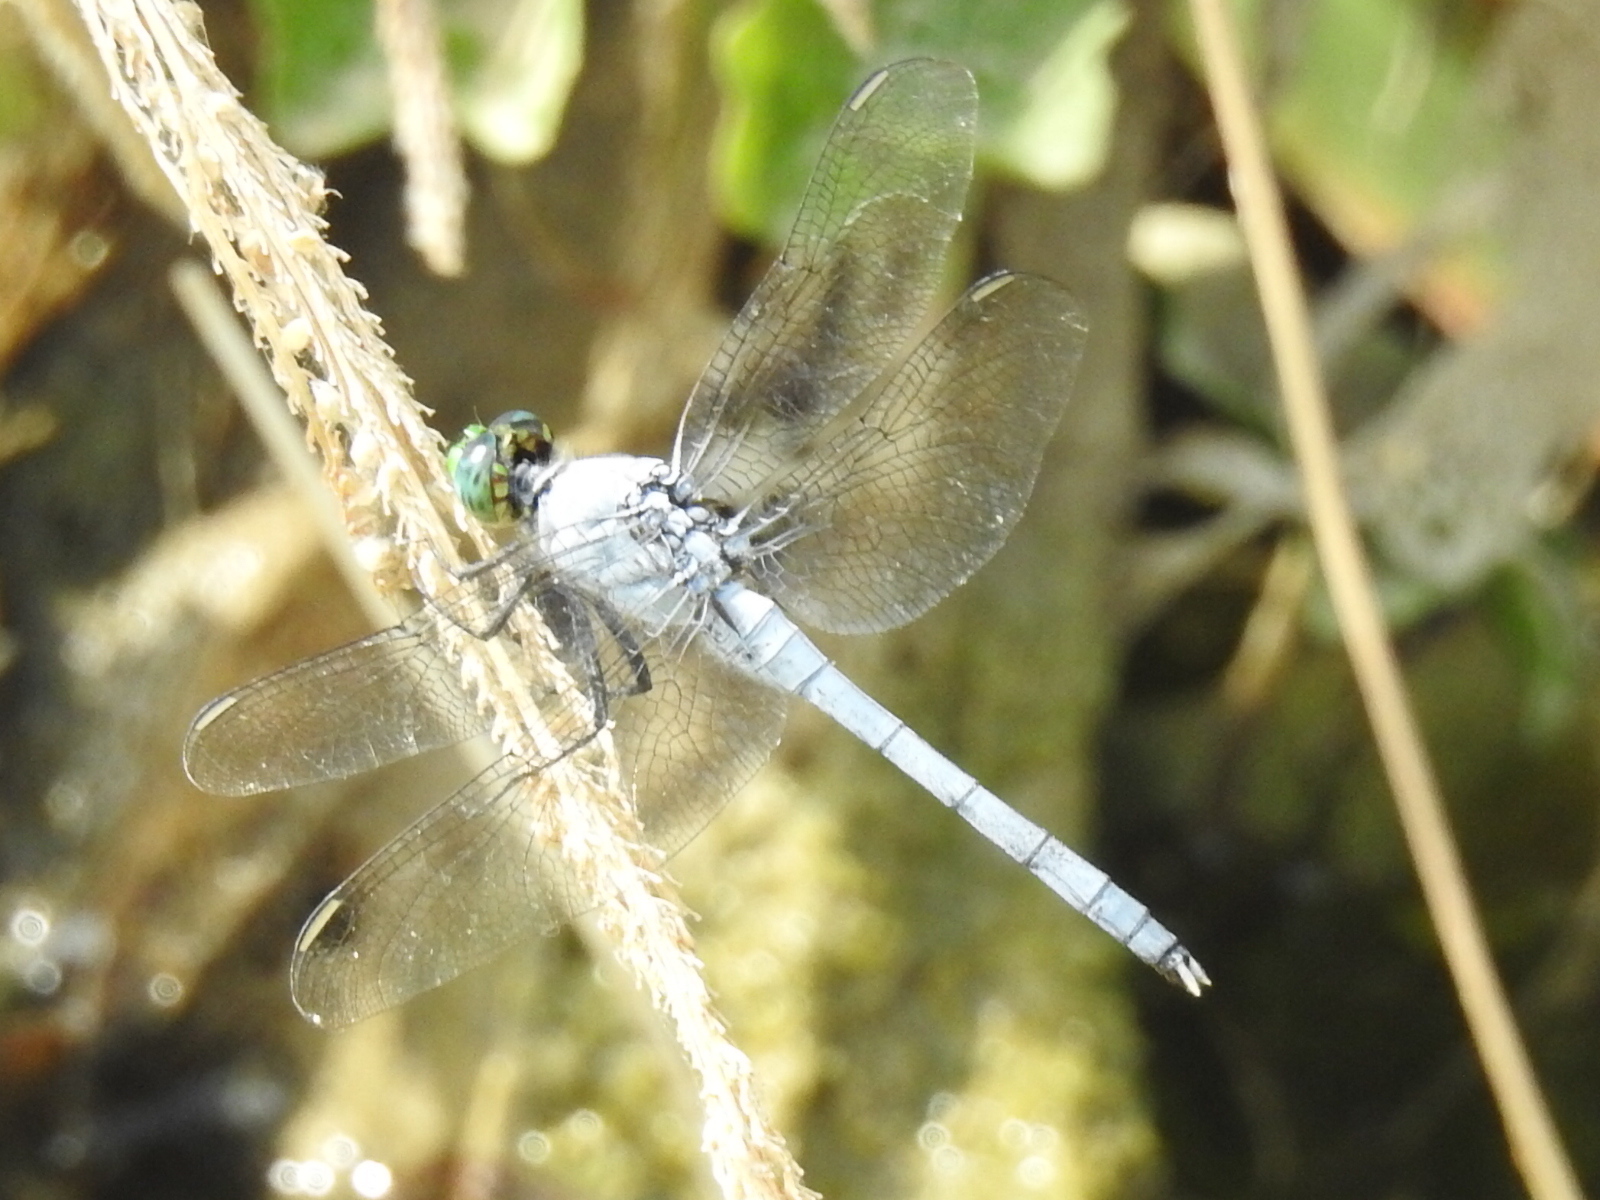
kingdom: Animalia
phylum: Arthropoda
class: Insecta
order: Odonata
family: Libellulidae
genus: Erythemis
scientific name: Erythemis simplicicollis
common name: Eastern pondhawk
